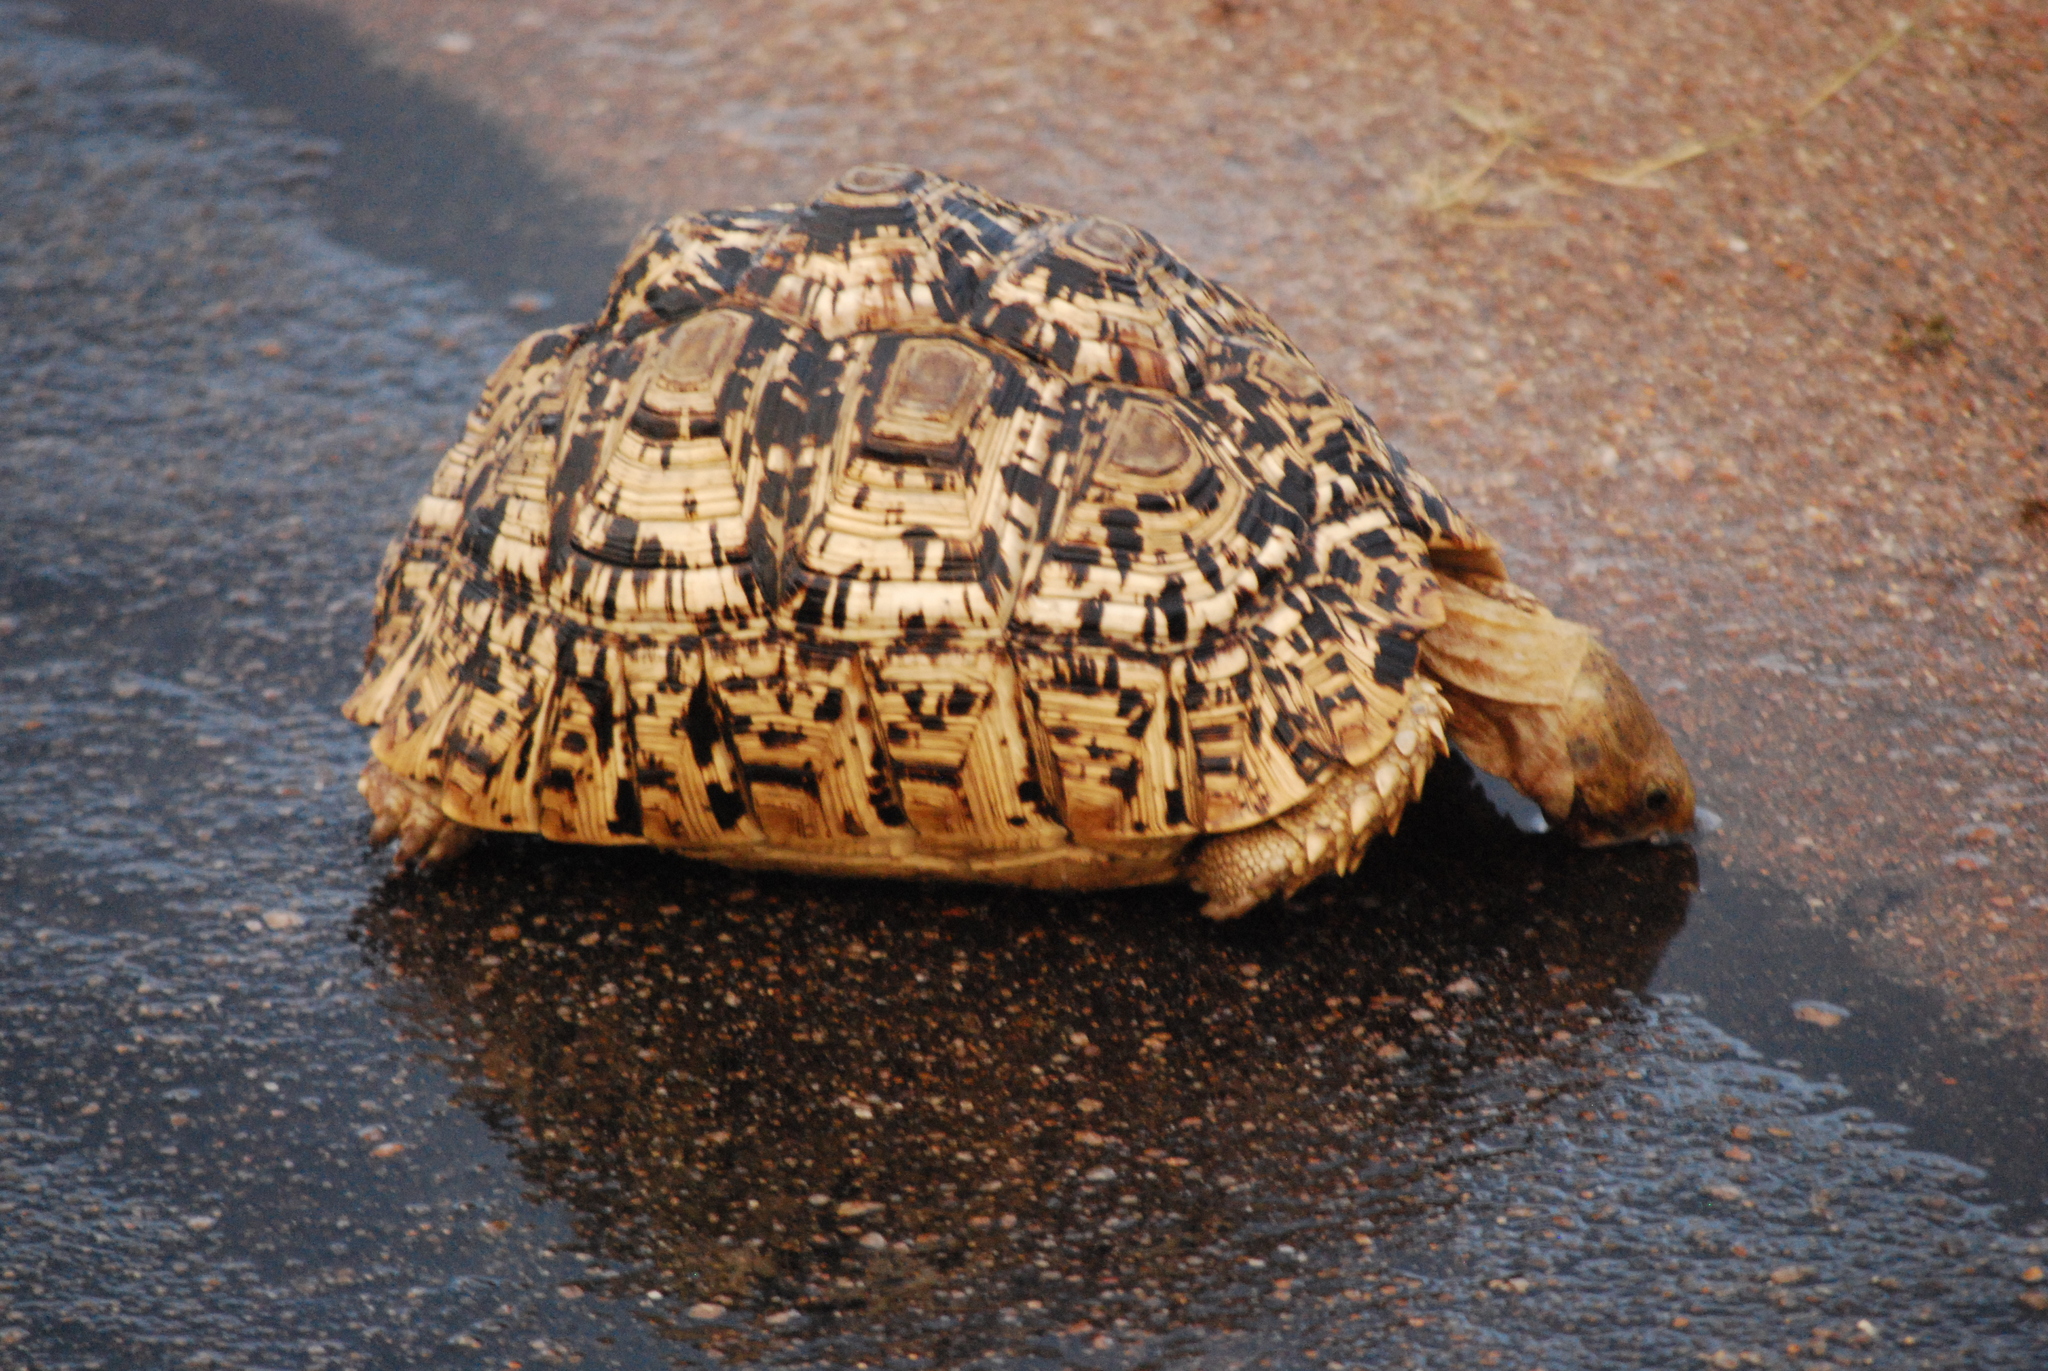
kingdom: Animalia
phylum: Chordata
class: Testudines
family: Testudinidae
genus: Stigmochelys
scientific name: Stigmochelys pardalis
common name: Leopard tortoise
